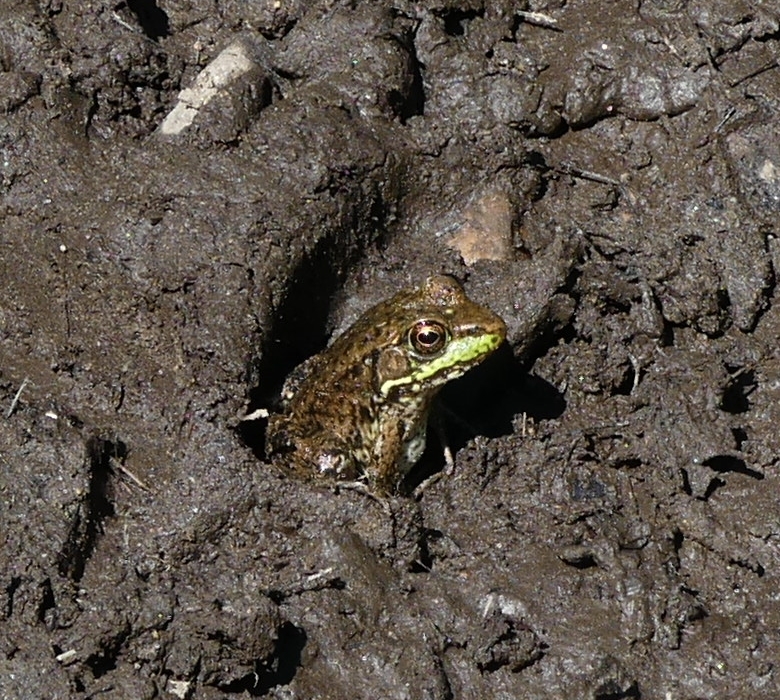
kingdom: Animalia
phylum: Chordata
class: Amphibia
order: Anura
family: Ranidae
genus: Lithobates
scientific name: Lithobates clamitans
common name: Green frog
